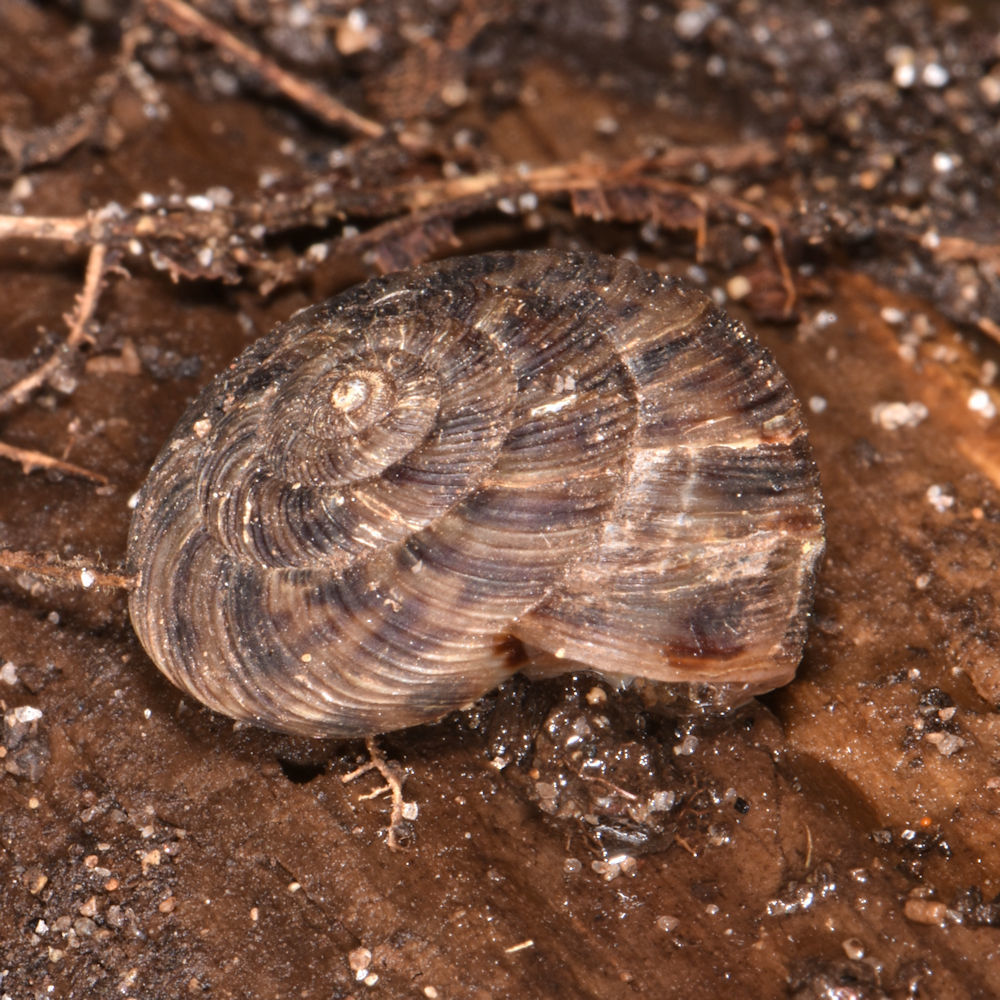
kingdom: Animalia
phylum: Mollusca
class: Gastropoda
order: Stylommatophora
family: Discidae
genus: Anguispira
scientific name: Anguispira alternata
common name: Flamed tigersnail
